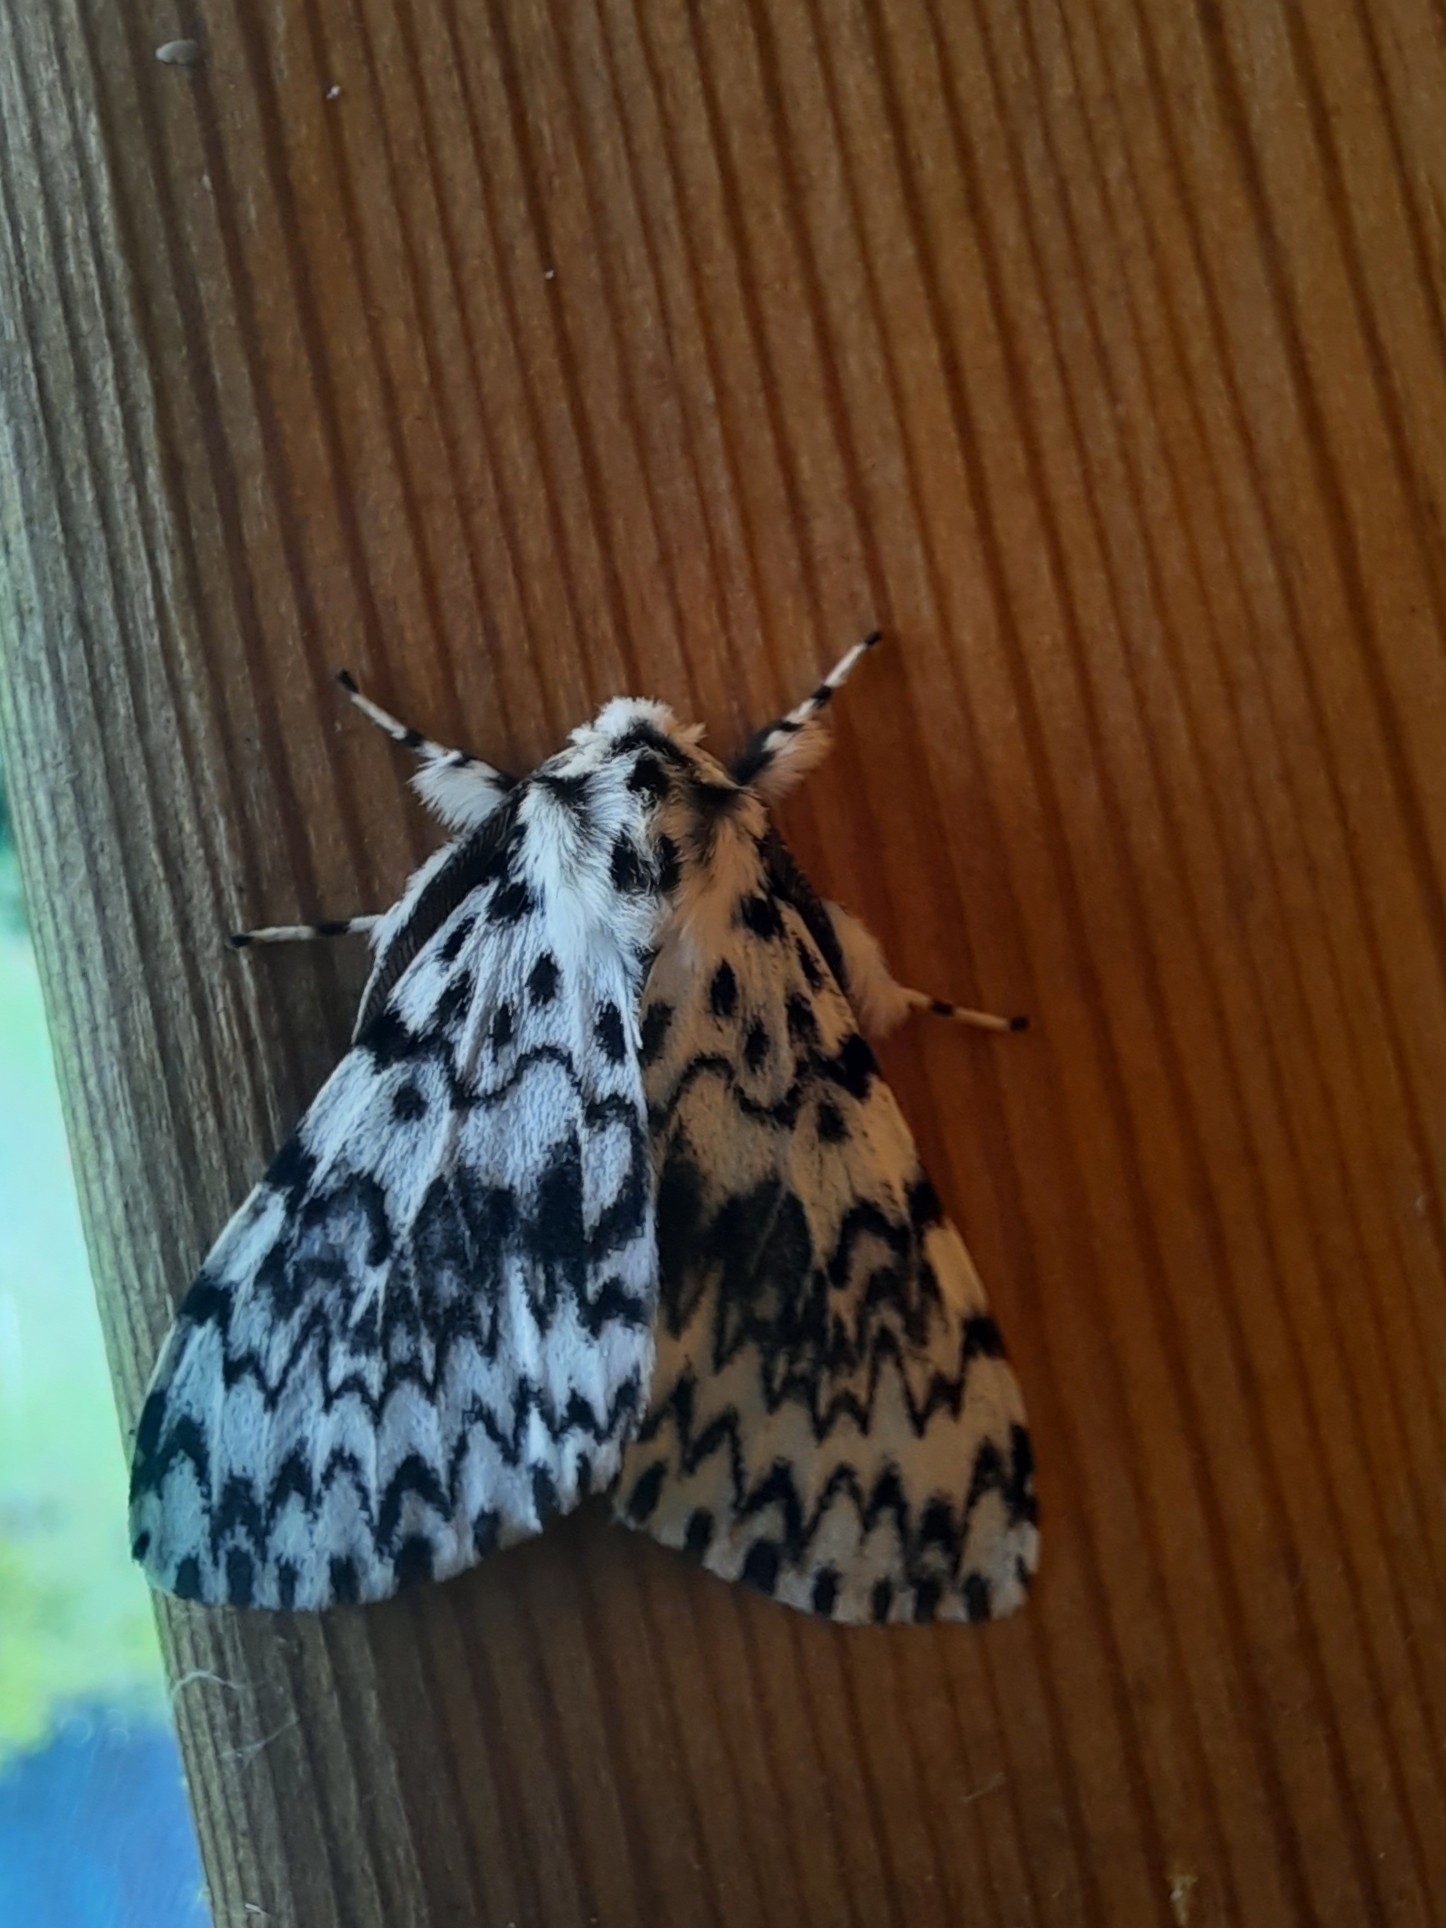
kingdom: Animalia
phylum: Arthropoda
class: Insecta
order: Lepidoptera
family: Erebidae
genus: Lymantria
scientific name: Lymantria monacha
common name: Black arches
